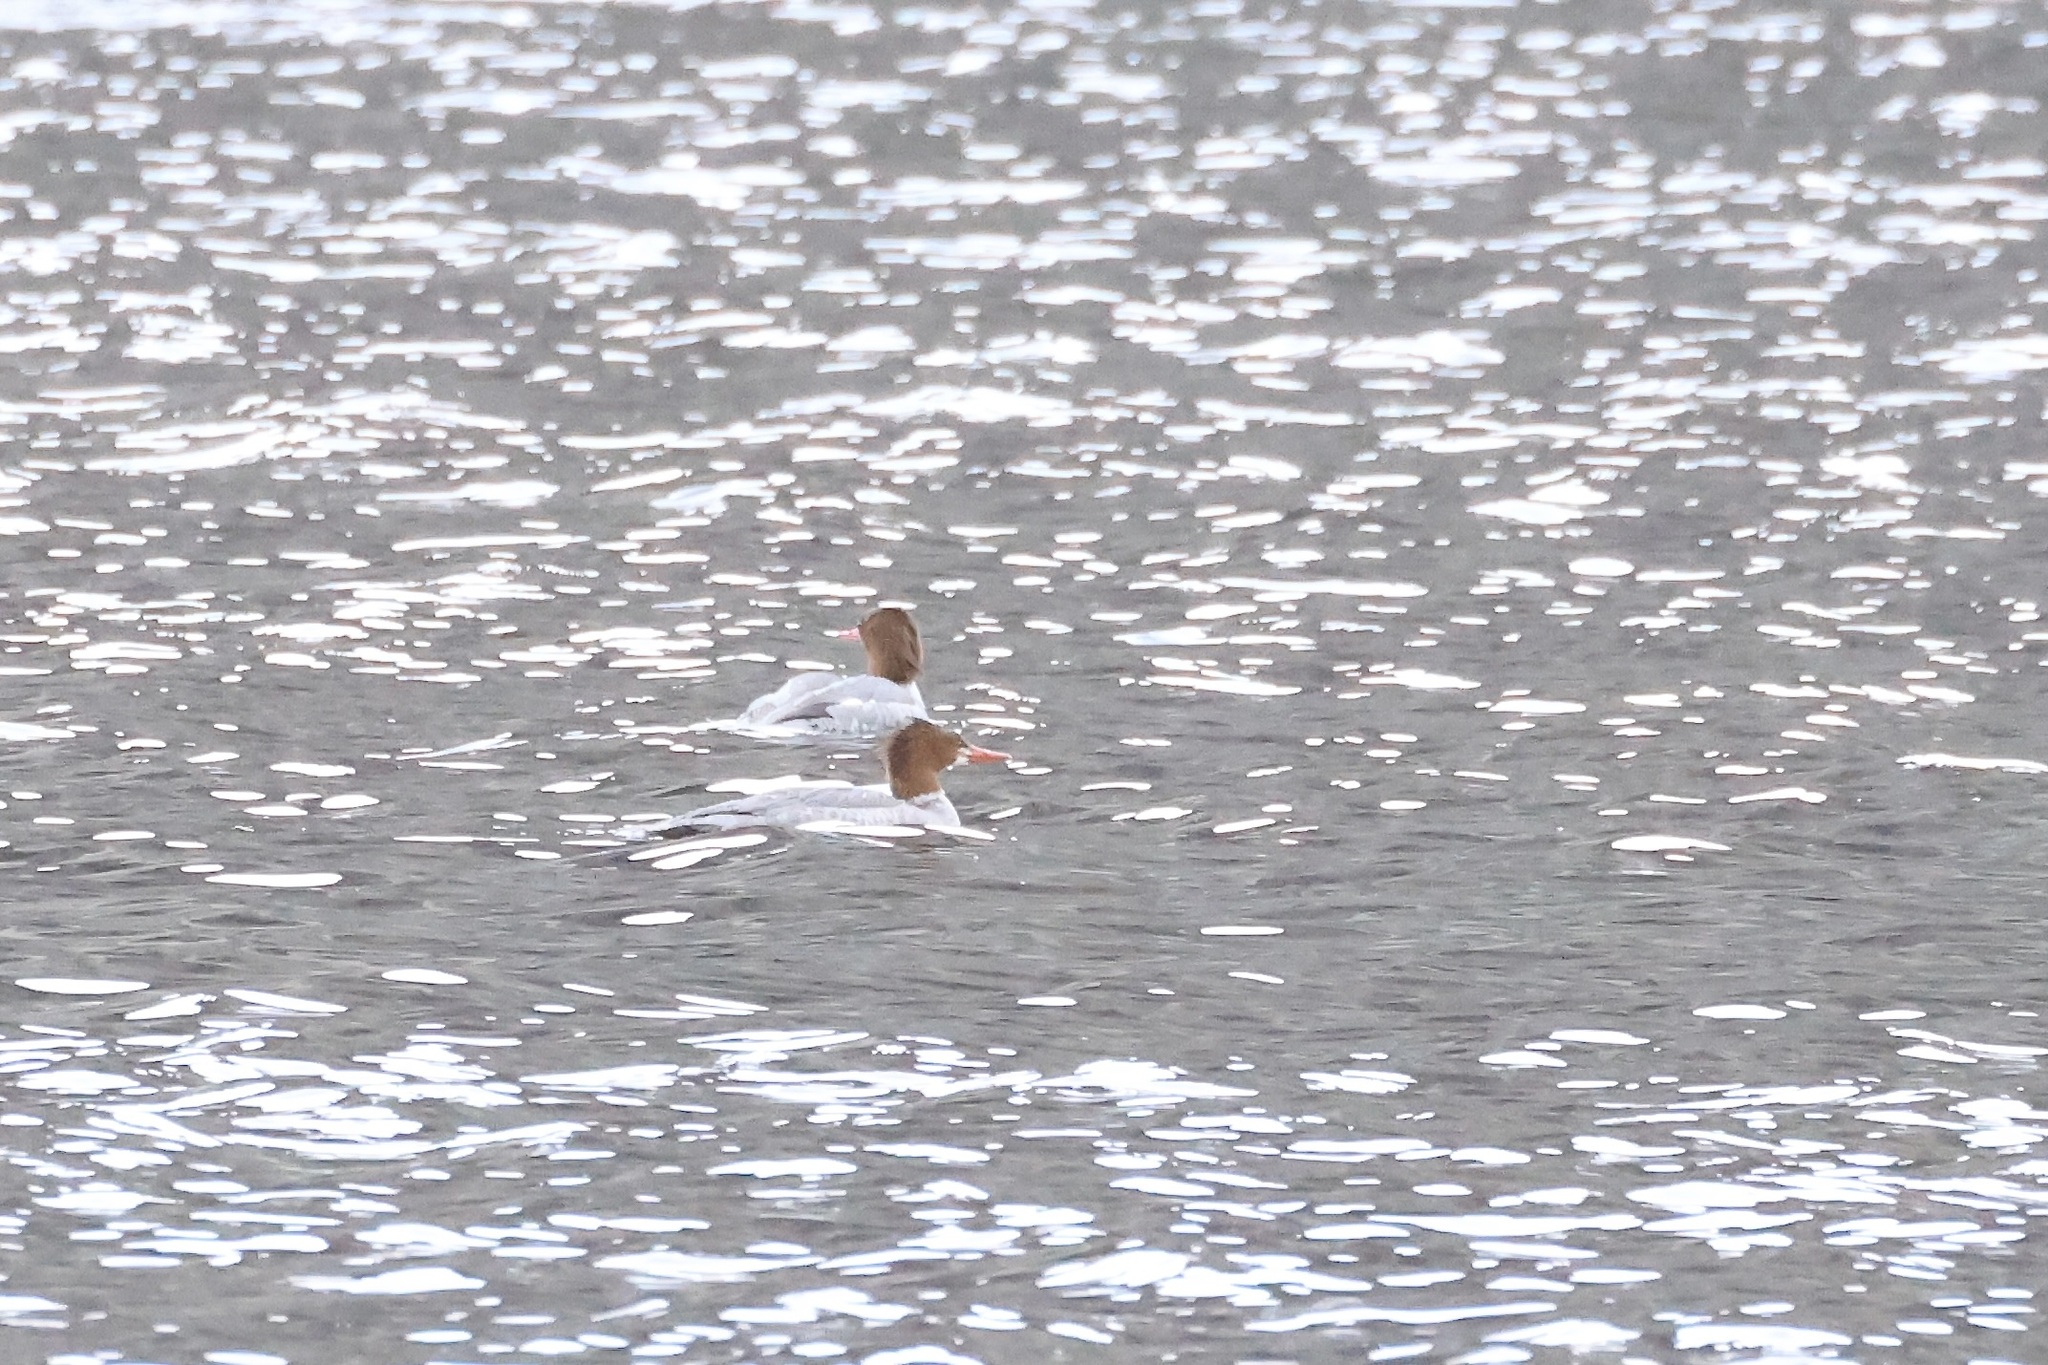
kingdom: Animalia
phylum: Chordata
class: Aves
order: Anseriformes
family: Anatidae
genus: Mergus
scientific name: Mergus merganser
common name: Common merganser
